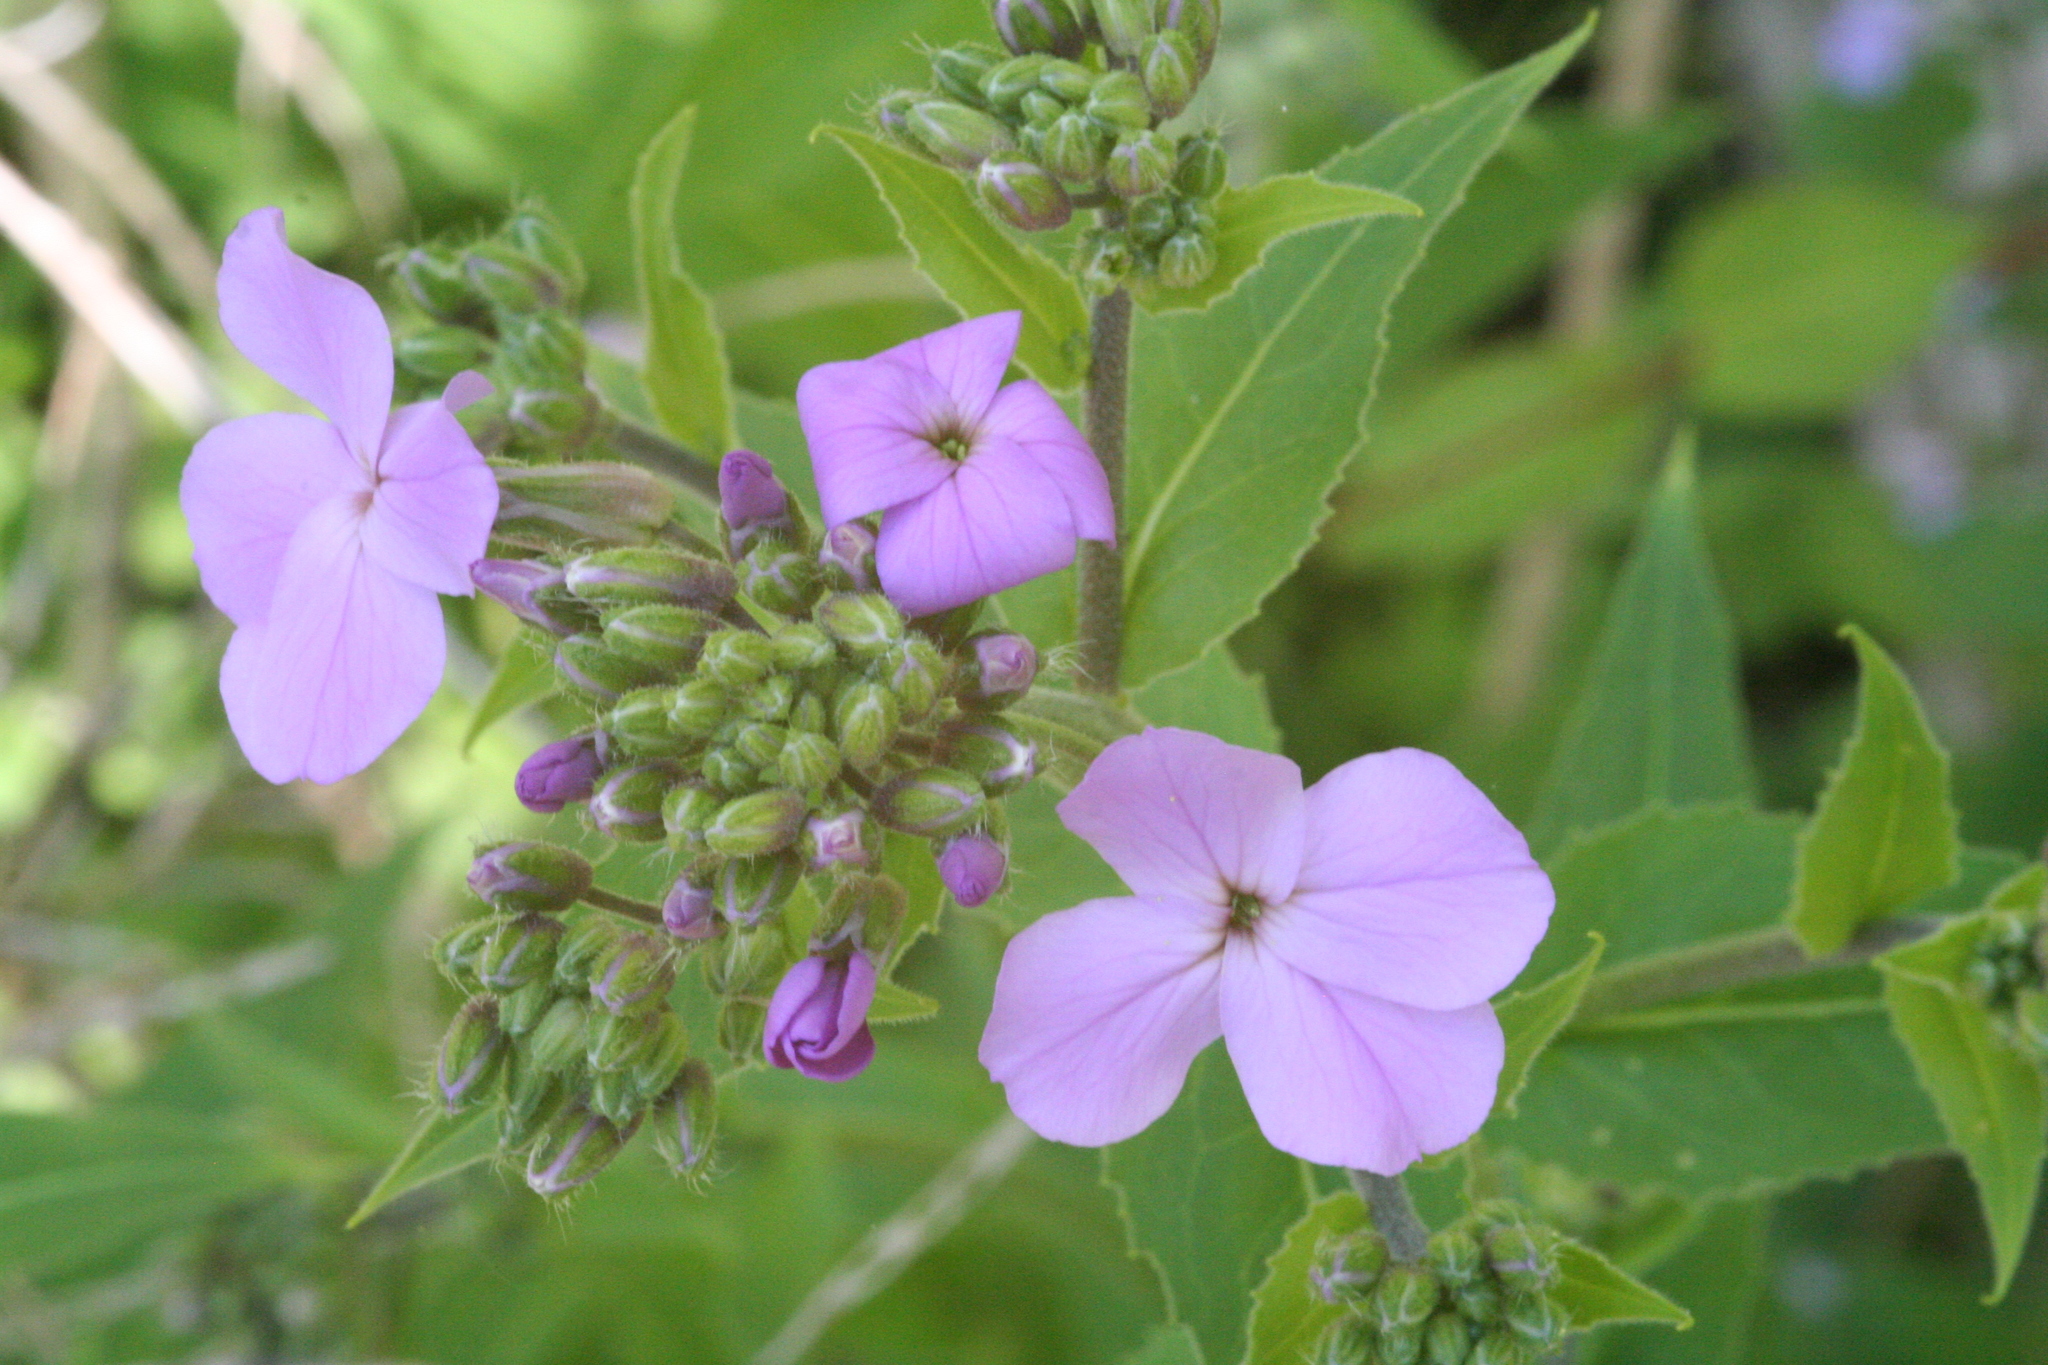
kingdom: Plantae
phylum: Tracheophyta
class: Magnoliopsida
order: Brassicales
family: Brassicaceae
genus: Hesperis
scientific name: Hesperis matronalis
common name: Dame's-violet
